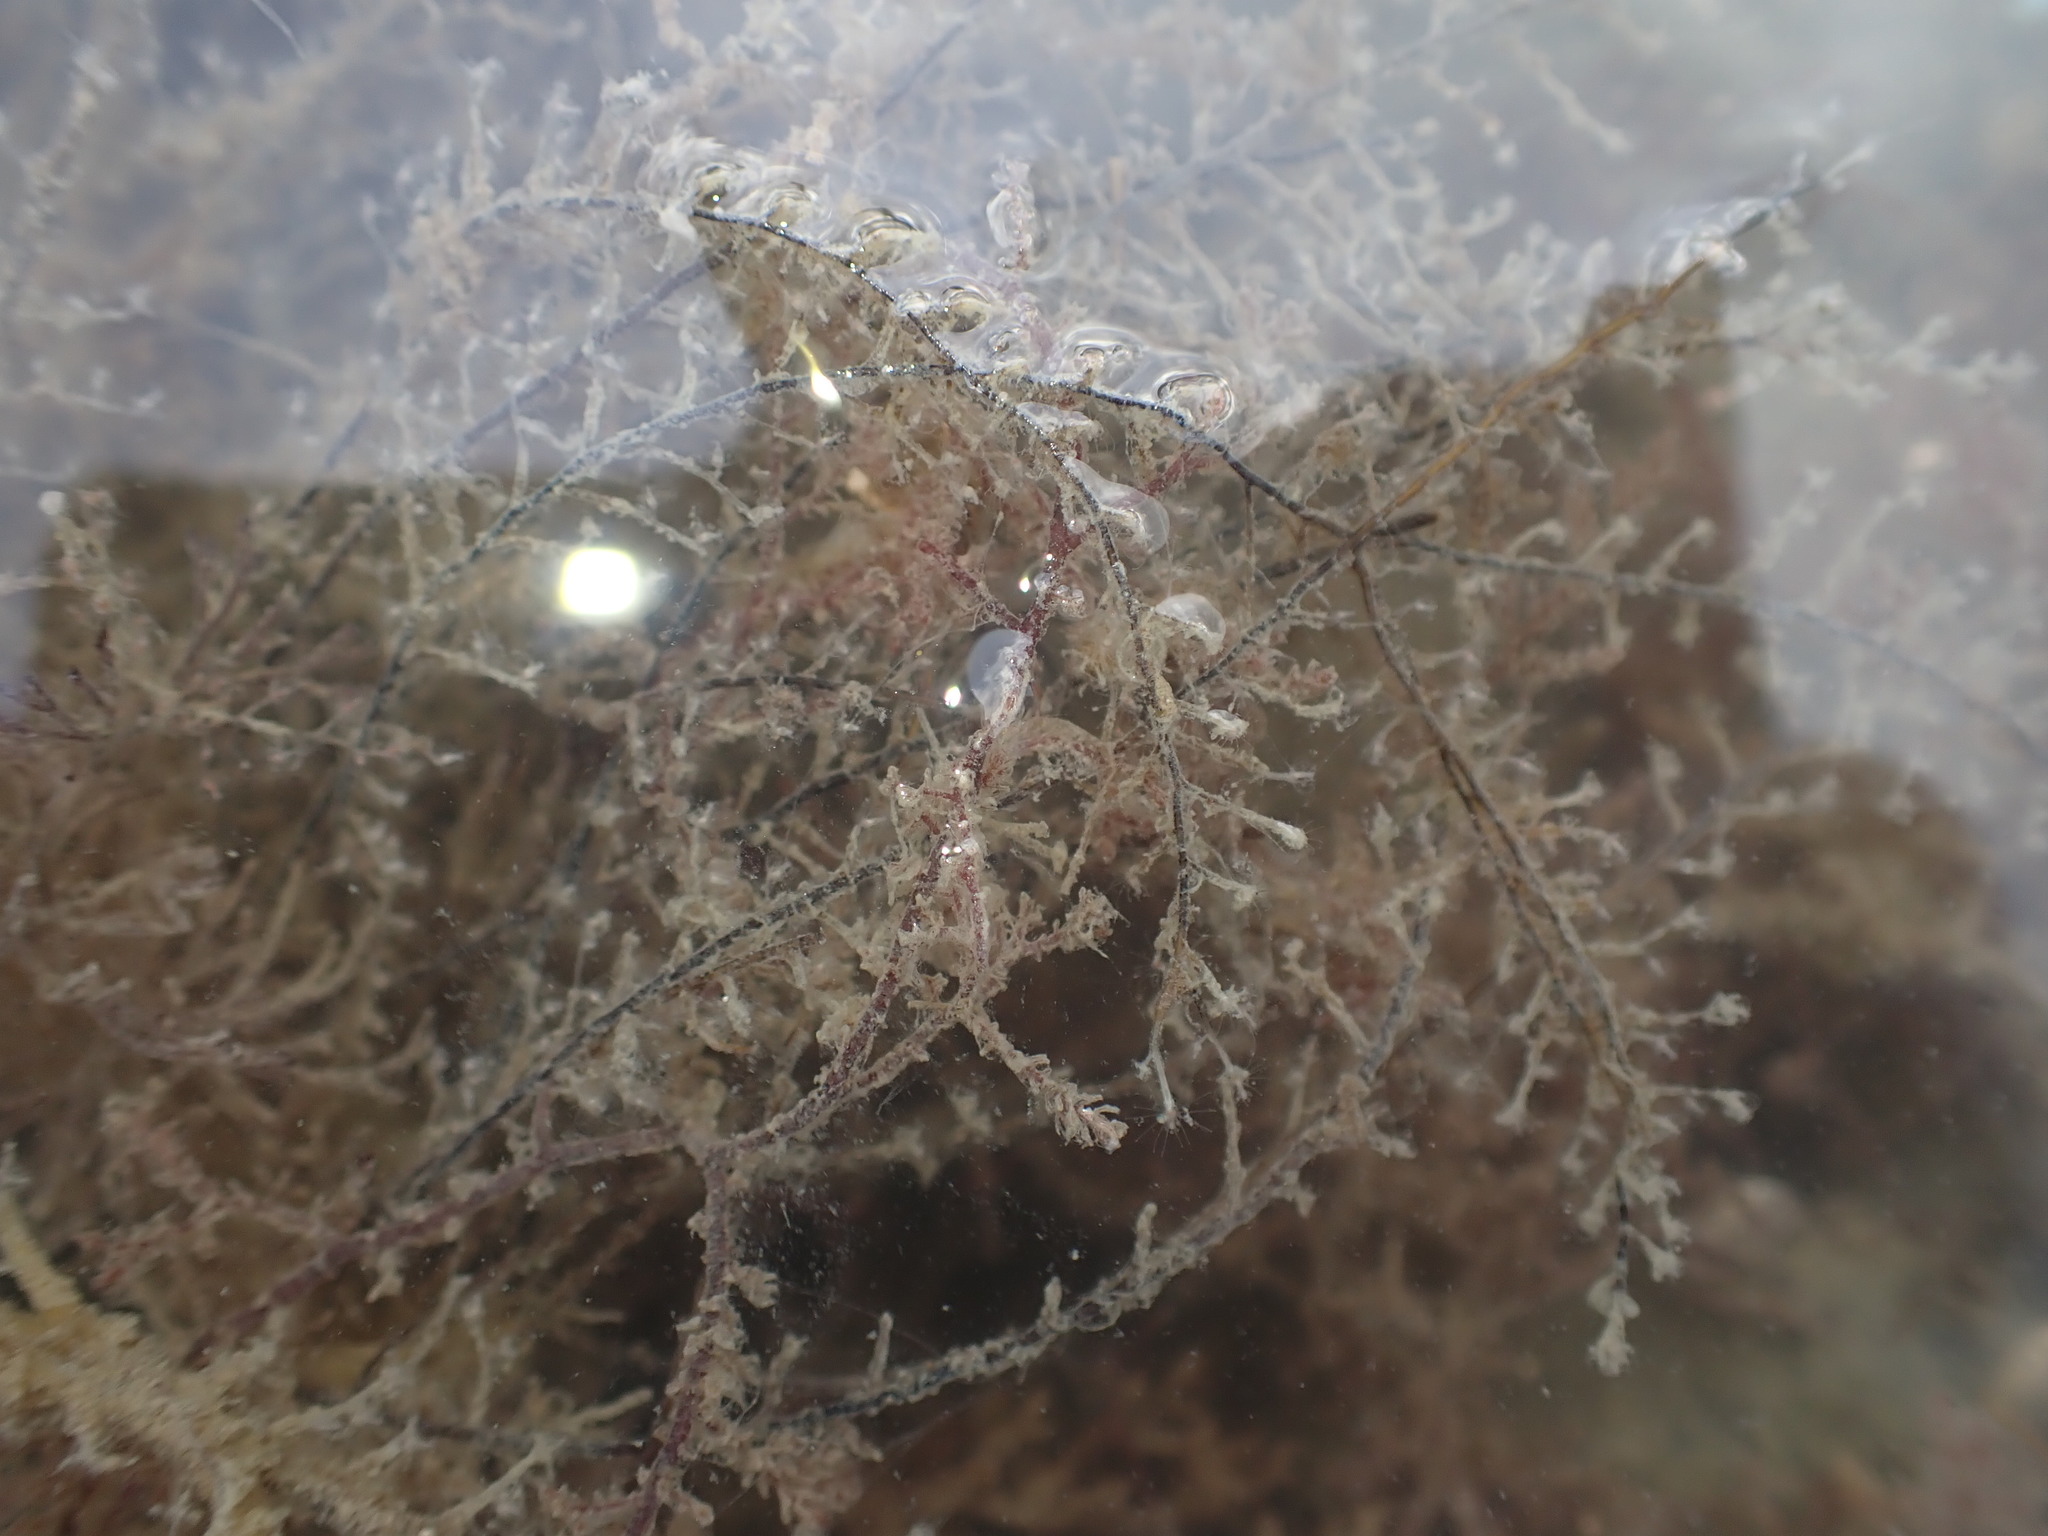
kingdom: Animalia
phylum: Cnidaria
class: Hydrozoa
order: Anthoathecata
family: Pennariidae
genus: Pennaria
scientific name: Pennaria disticha
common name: Feather hydroid
